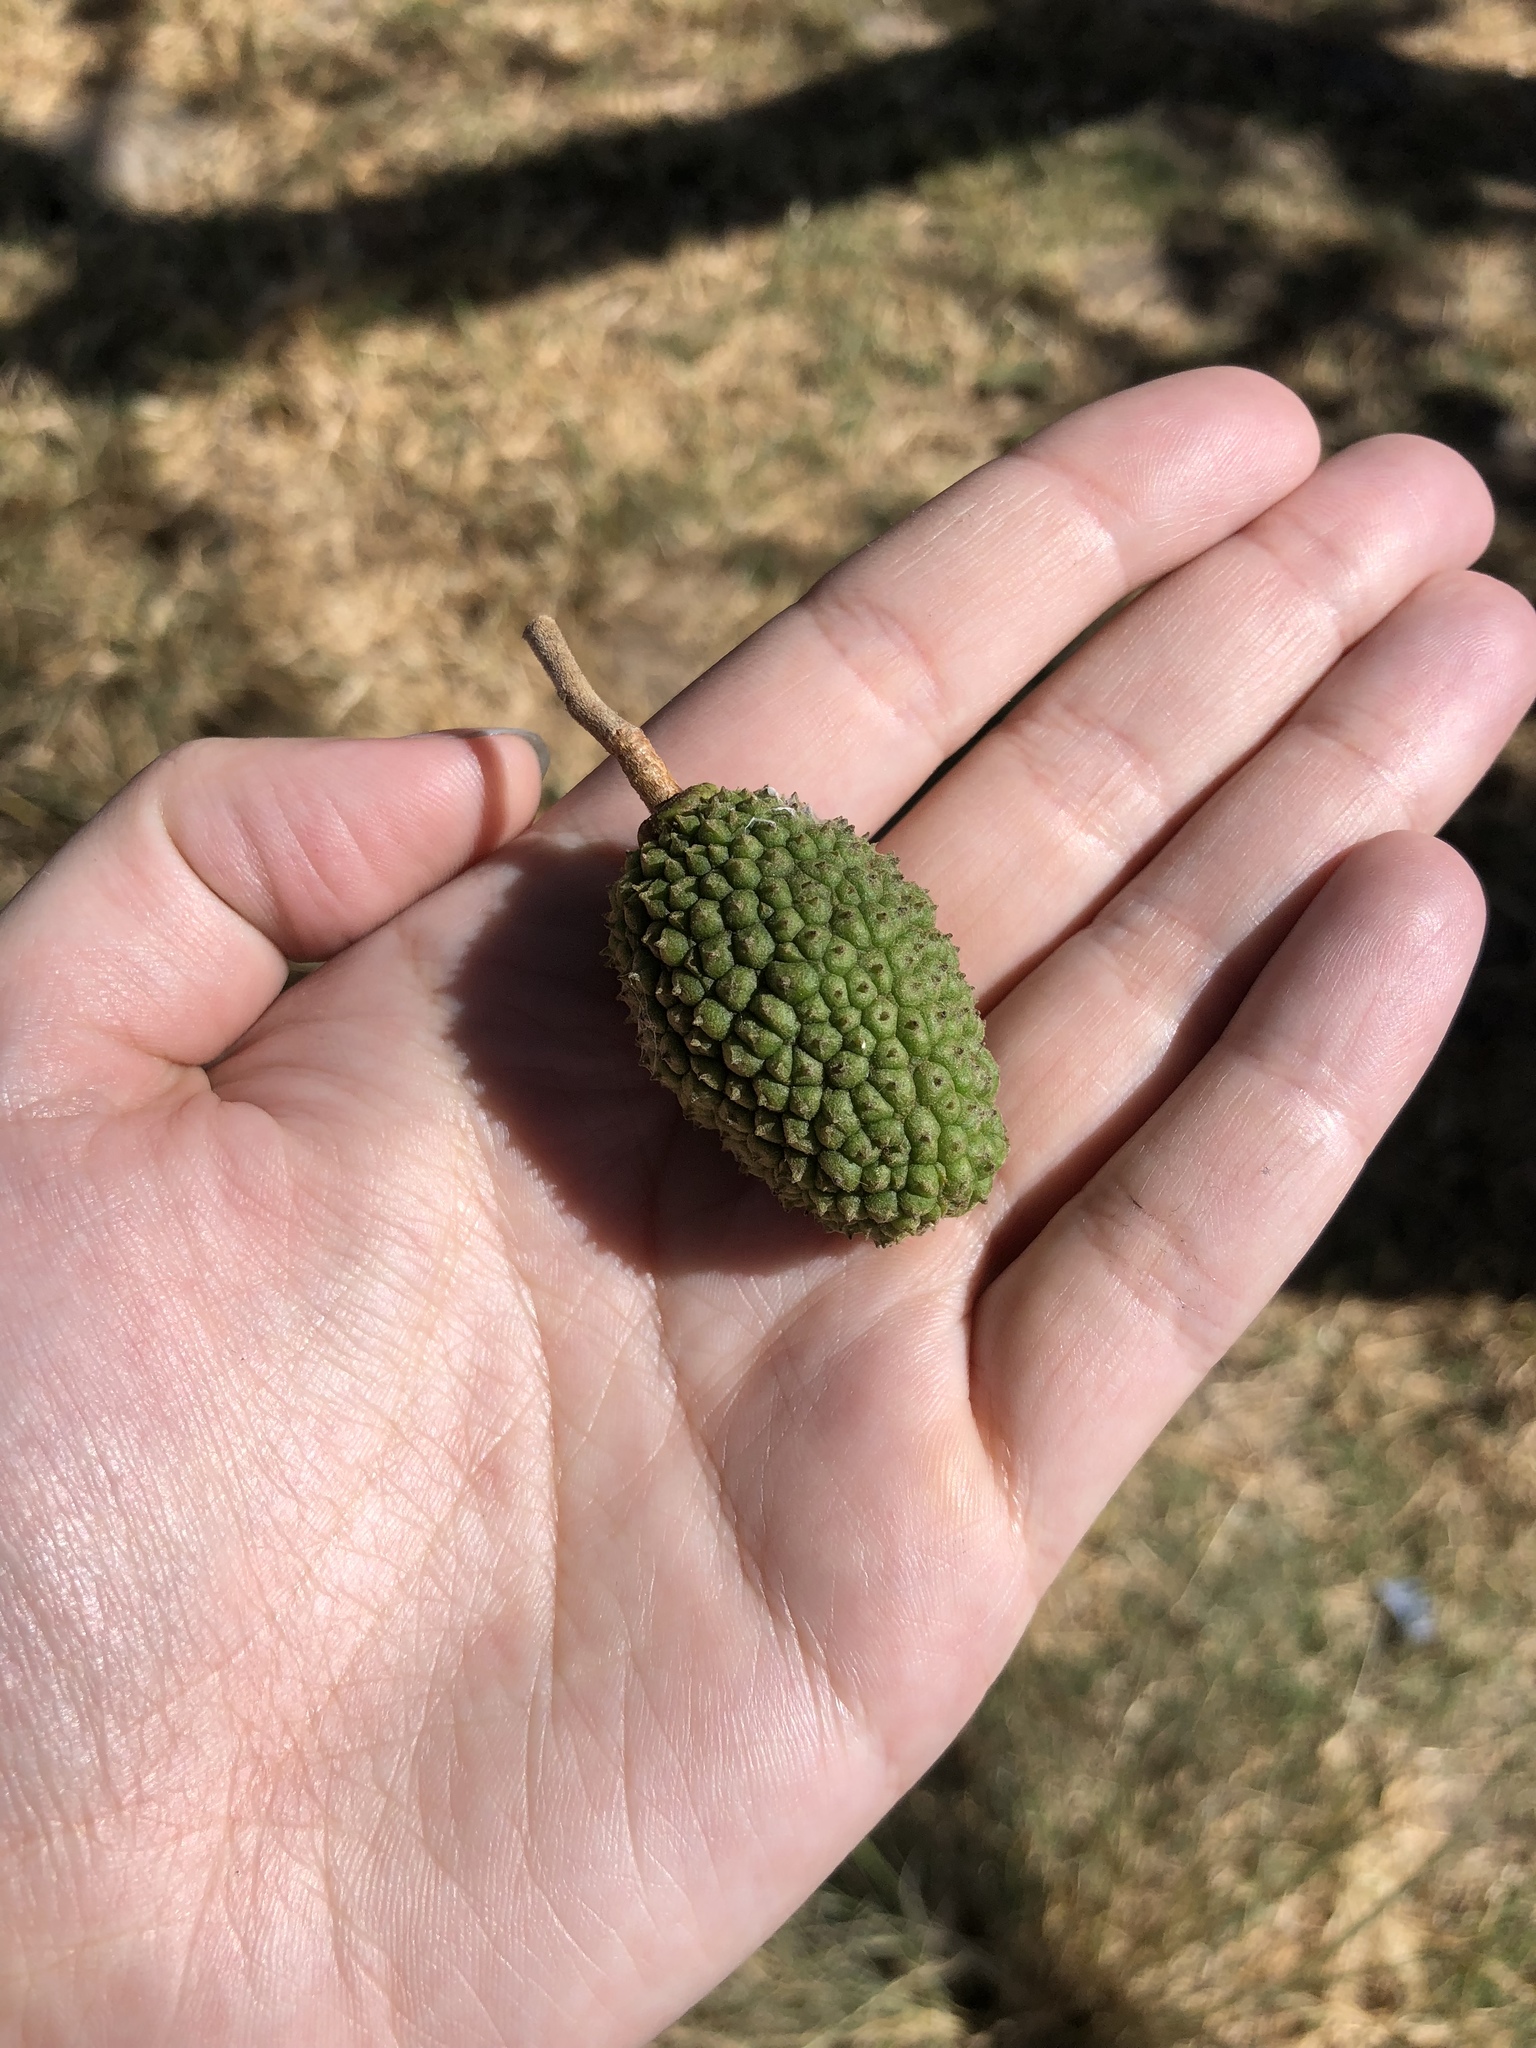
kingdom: Plantae
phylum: Tracheophyta
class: Magnoliopsida
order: Malvales
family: Malvaceae
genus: Guazuma
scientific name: Guazuma ulmifolia
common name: Bastard-cedar
